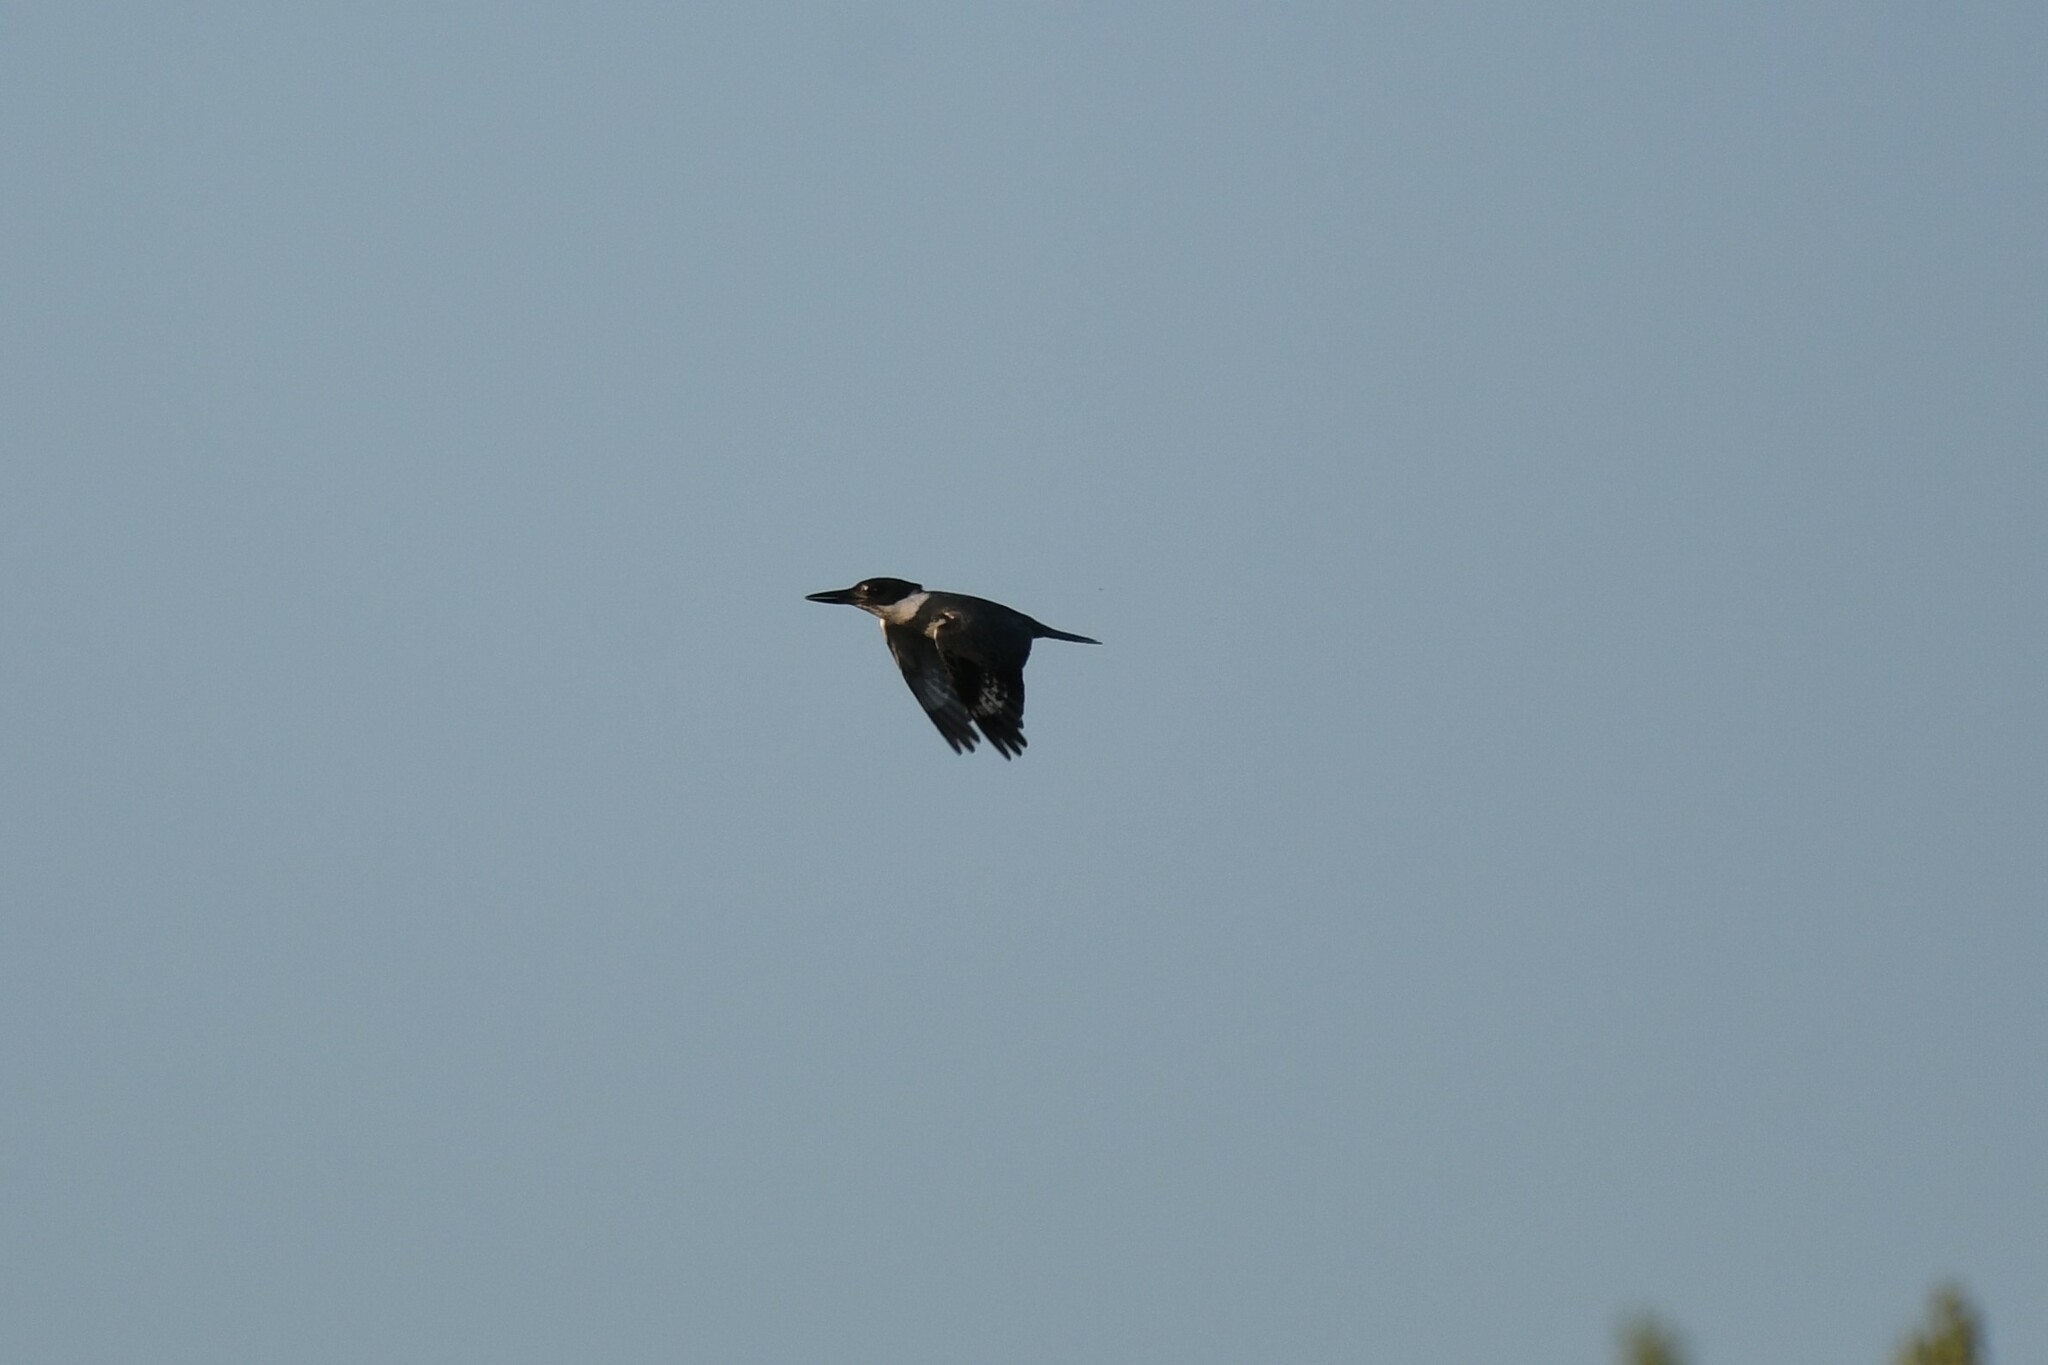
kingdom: Animalia
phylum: Chordata
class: Aves
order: Coraciiformes
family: Alcedinidae
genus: Megaceryle
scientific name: Megaceryle alcyon
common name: Belted kingfisher
